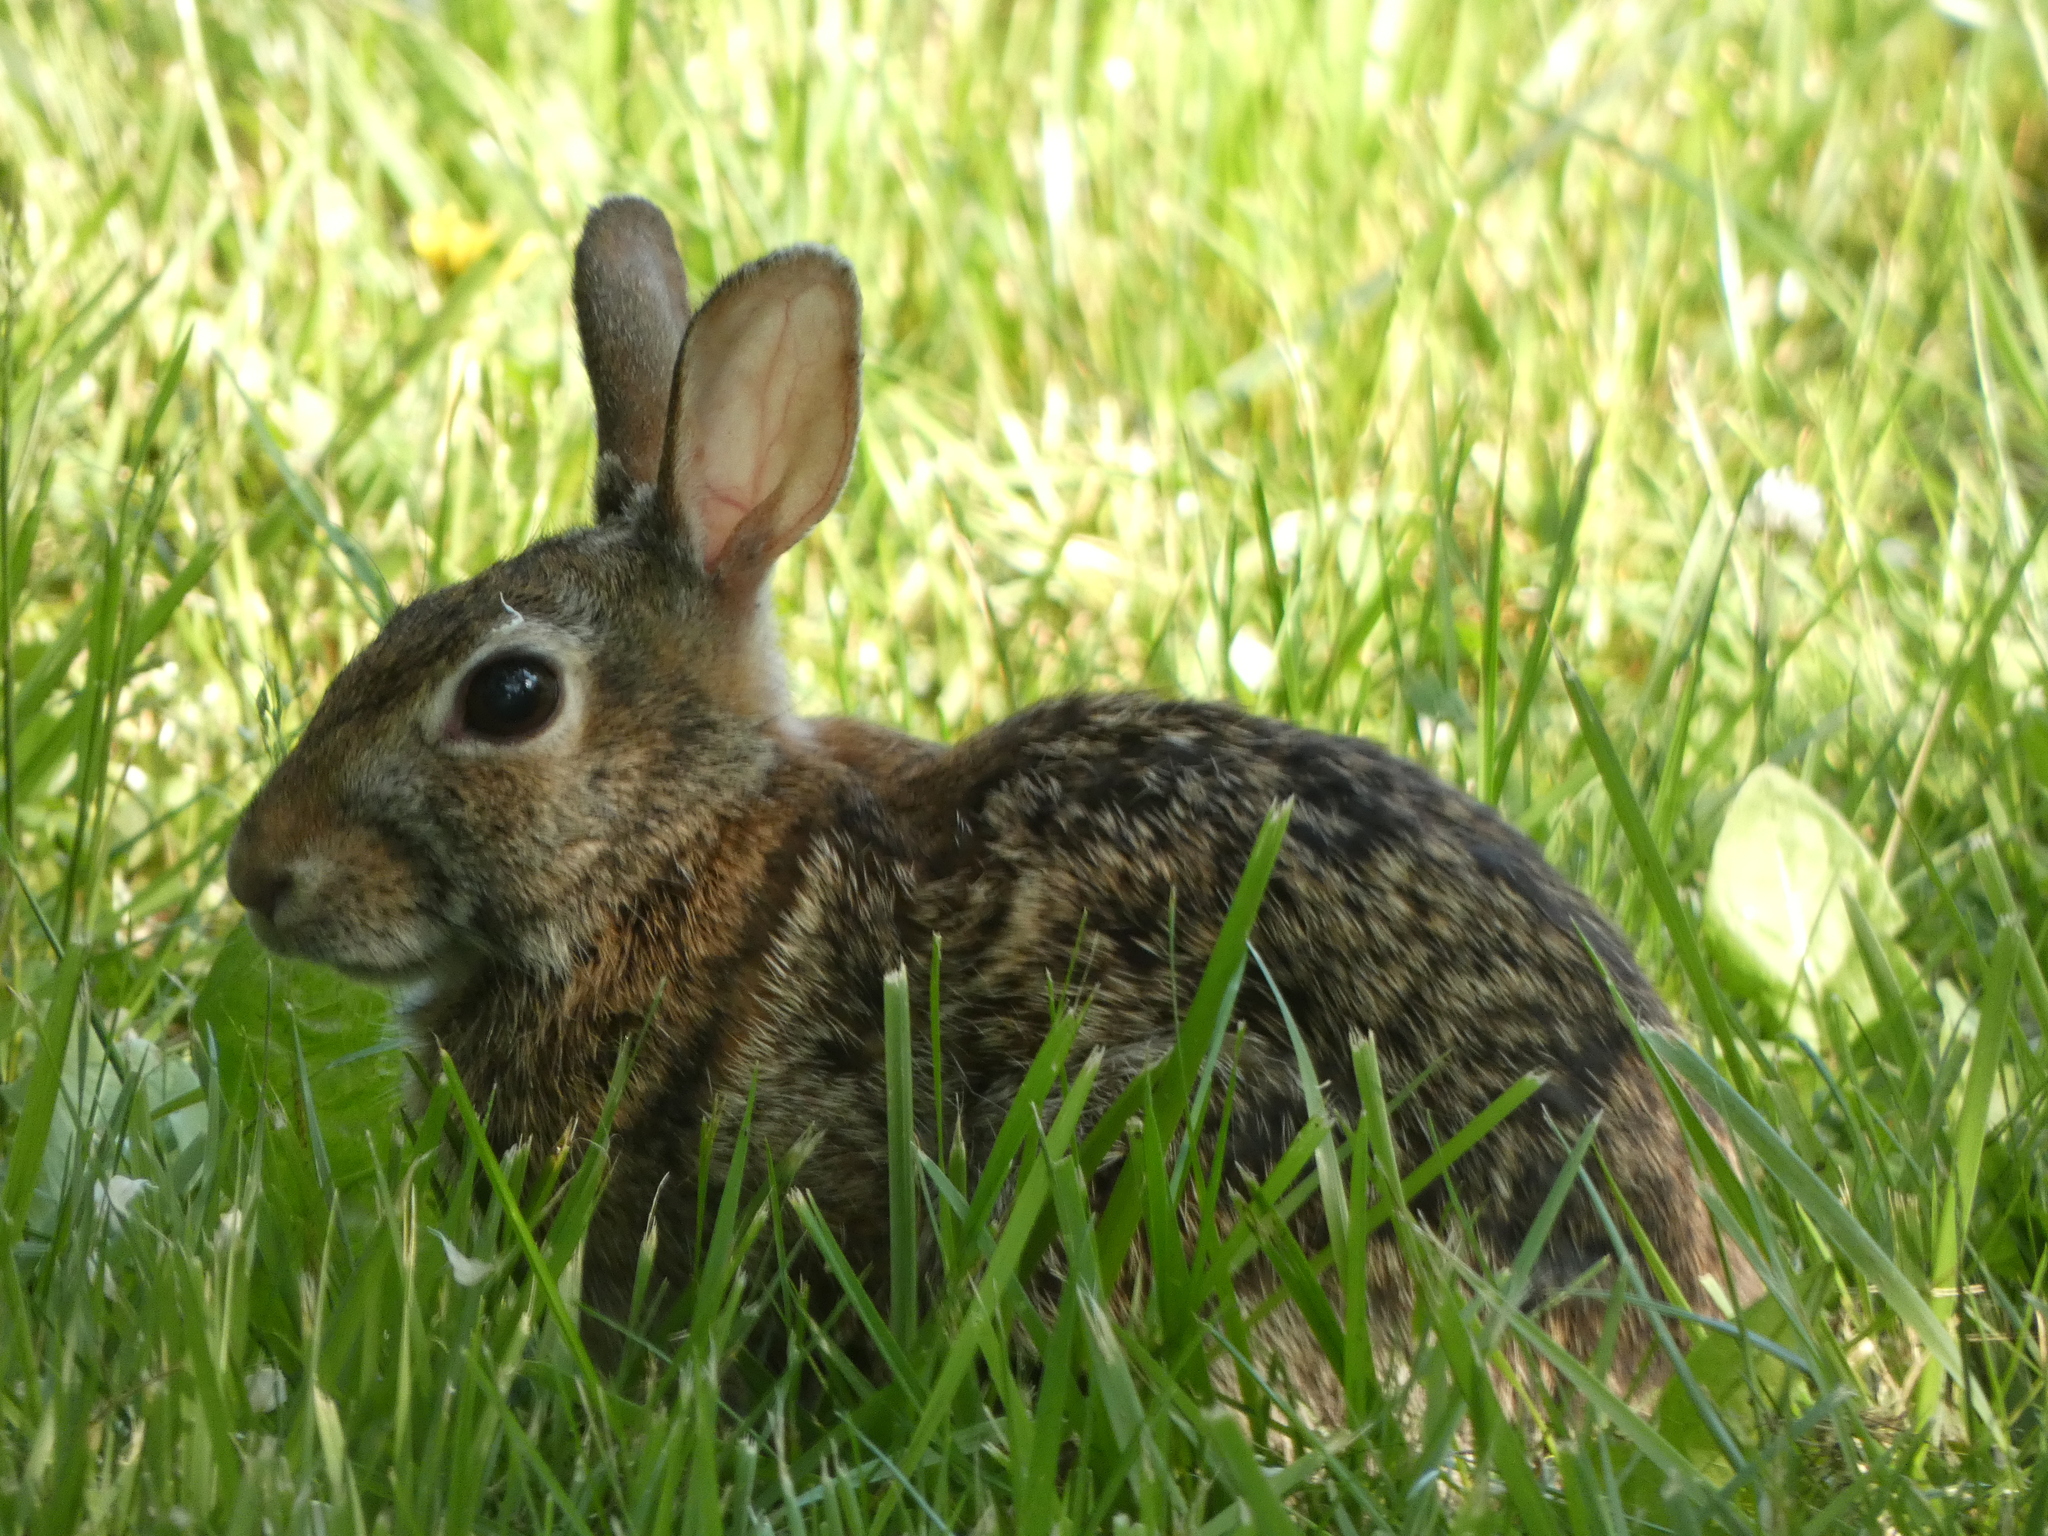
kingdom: Animalia
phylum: Chordata
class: Mammalia
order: Lagomorpha
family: Leporidae
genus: Sylvilagus
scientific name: Sylvilagus floridanus
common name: Eastern cottontail
